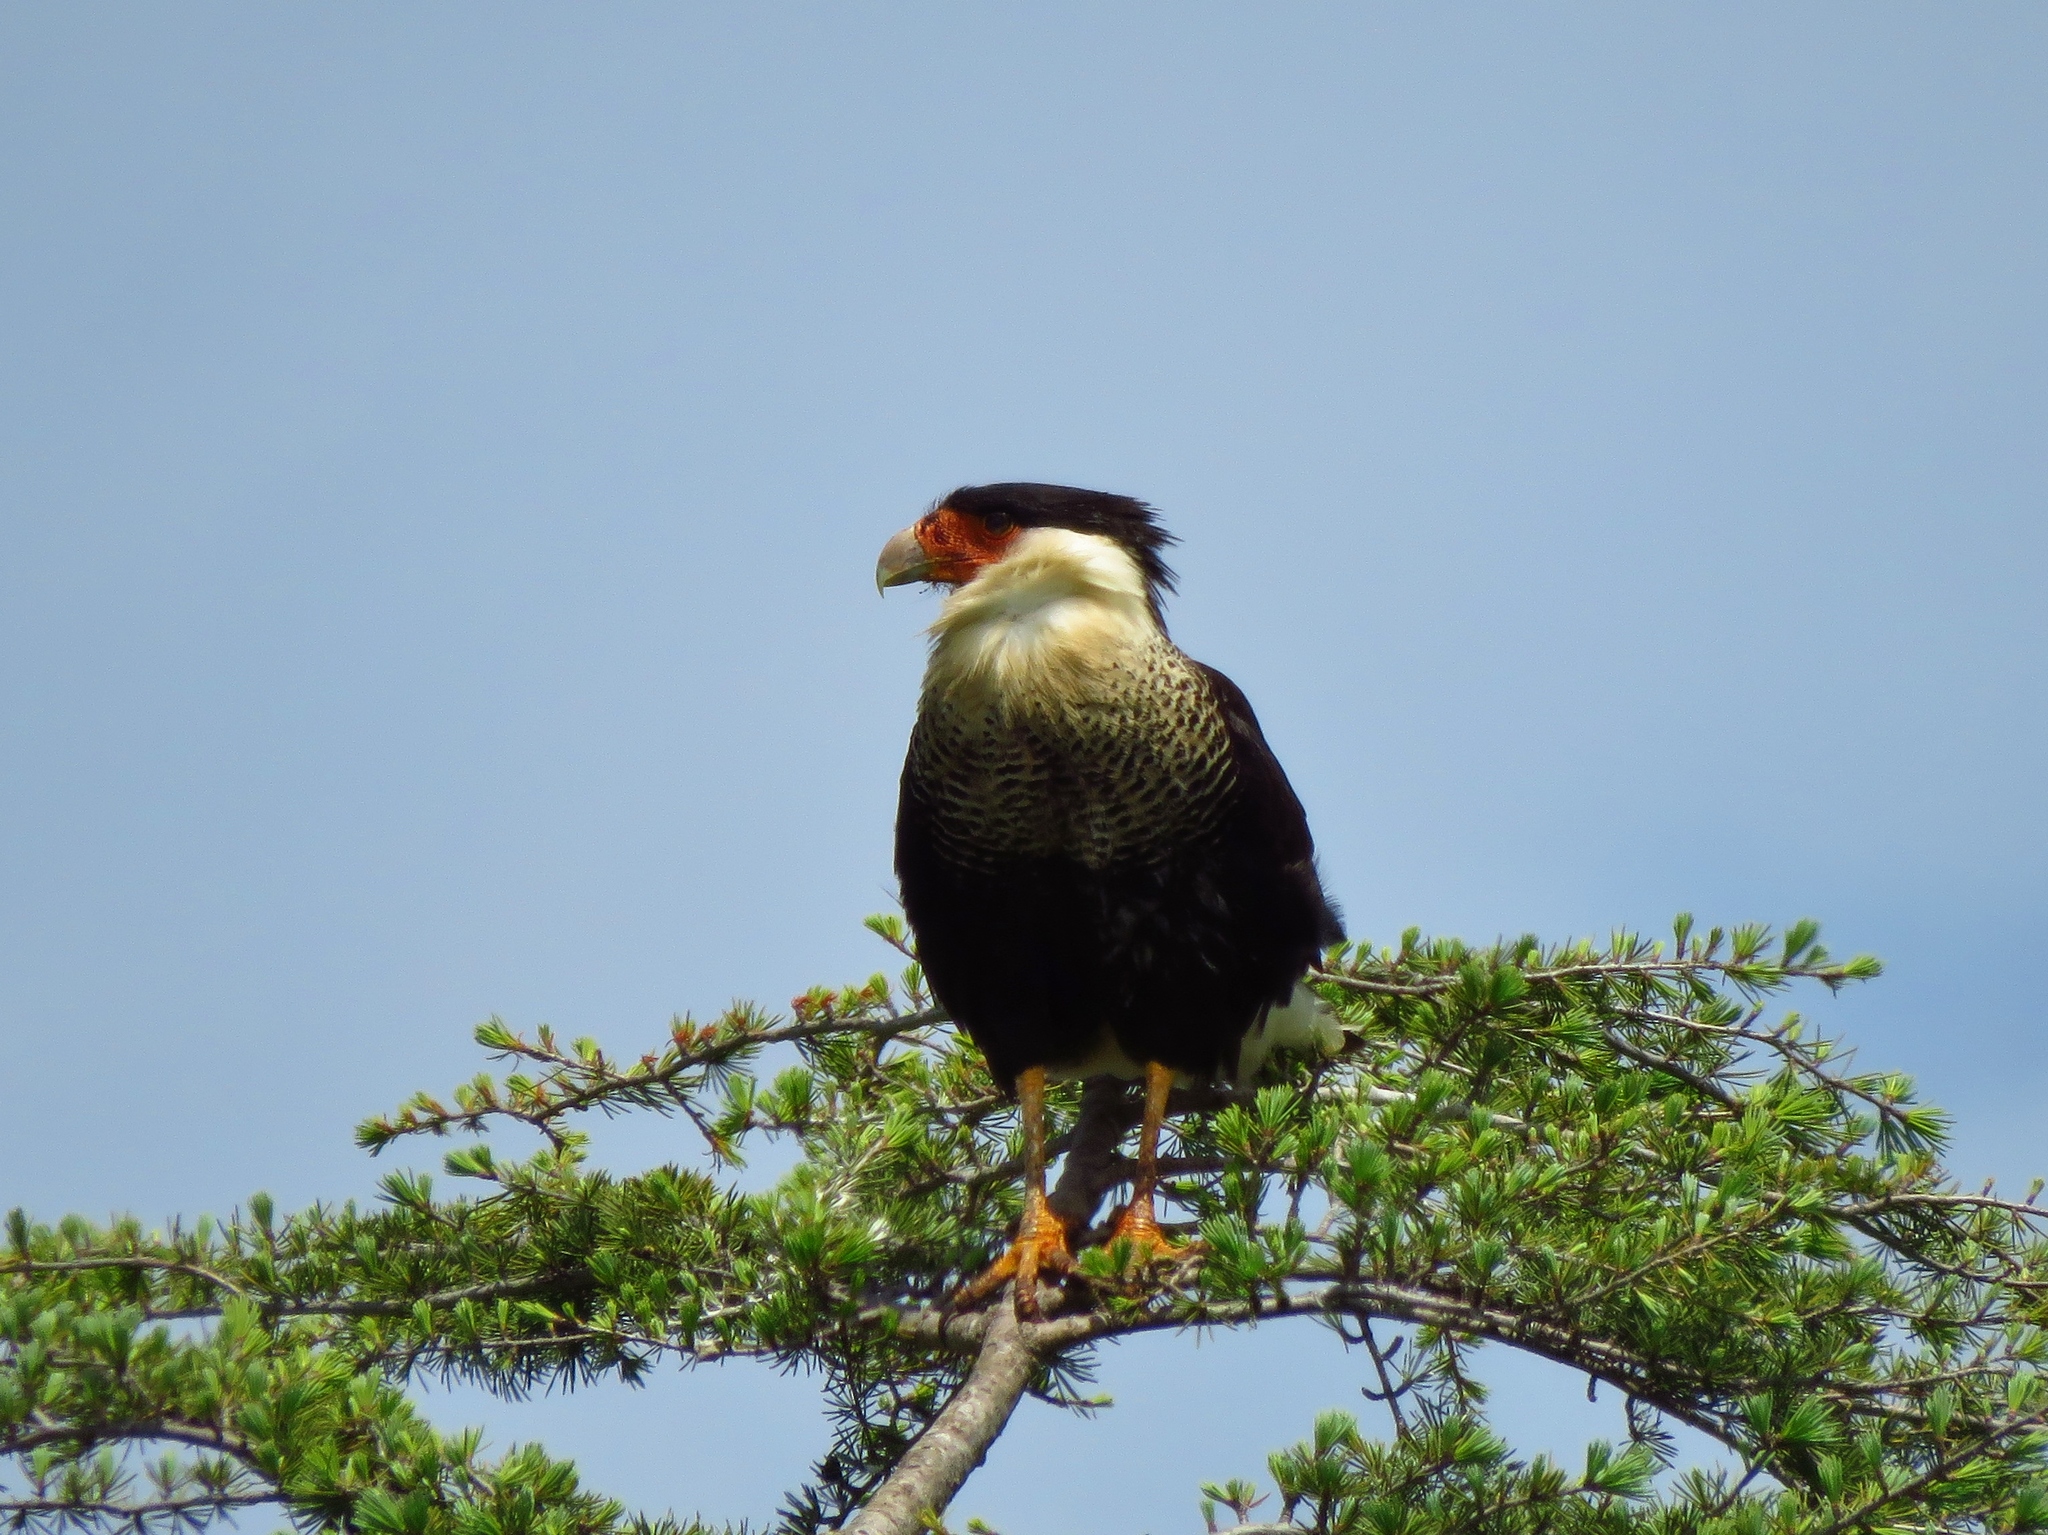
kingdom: Animalia
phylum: Chordata
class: Aves
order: Falconiformes
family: Falconidae
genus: Caracara
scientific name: Caracara plancus
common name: Southern caracara
